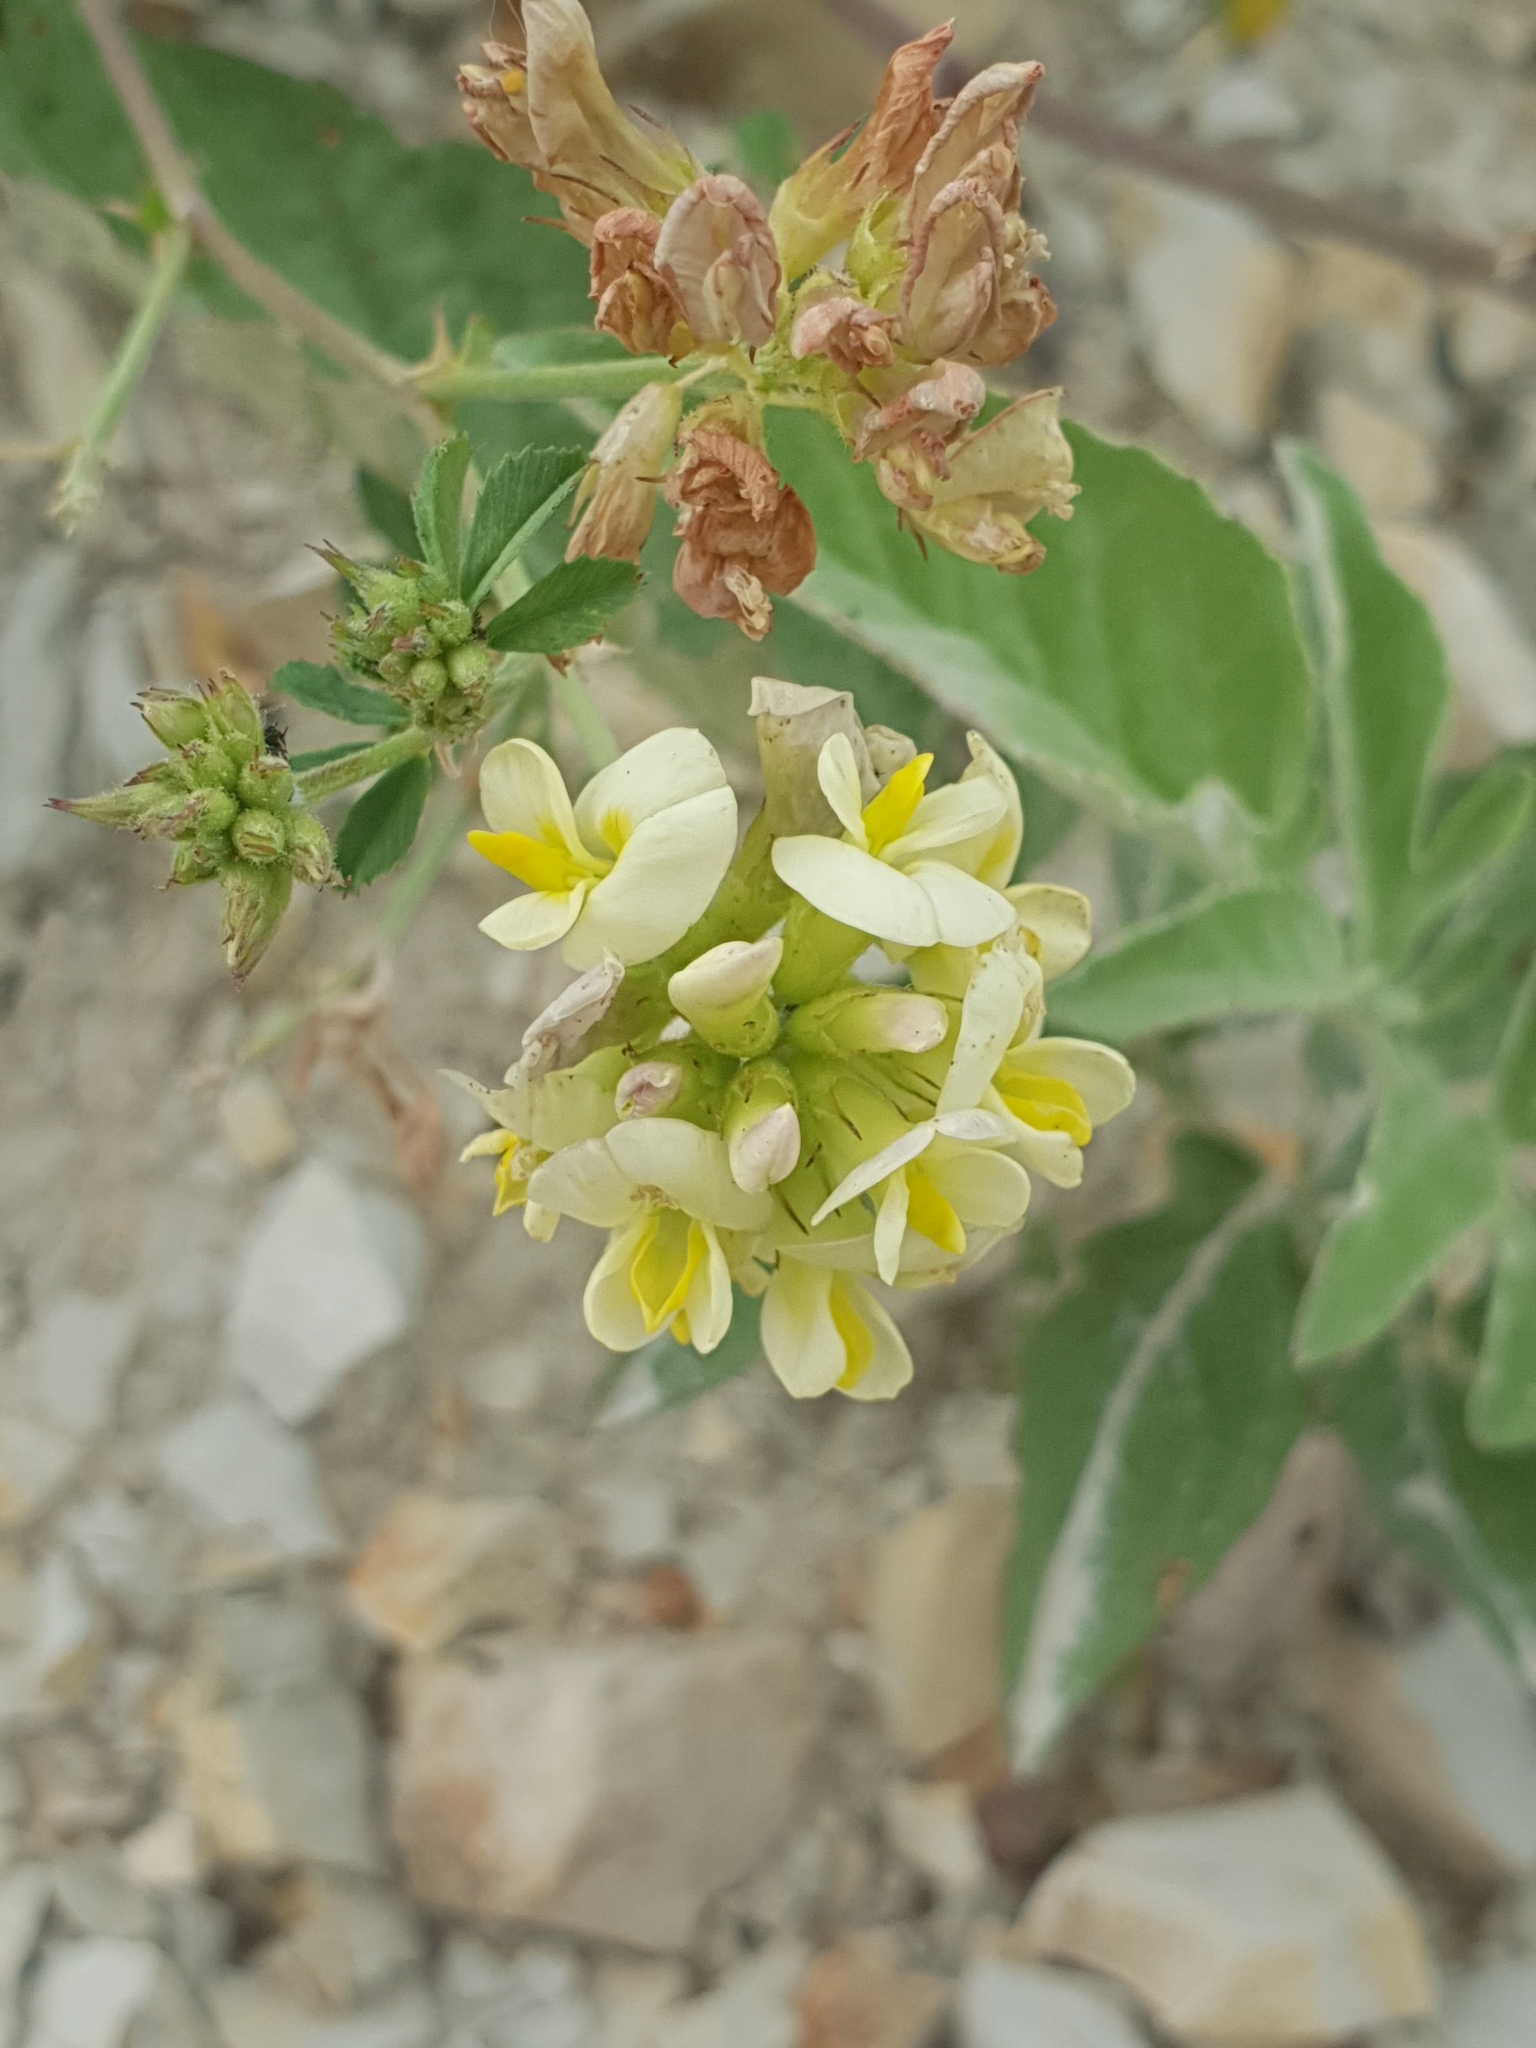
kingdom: Plantae
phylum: Tracheophyta
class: Magnoliopsida
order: Fabales
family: Fabaceae
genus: Medicago
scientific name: Medicago
